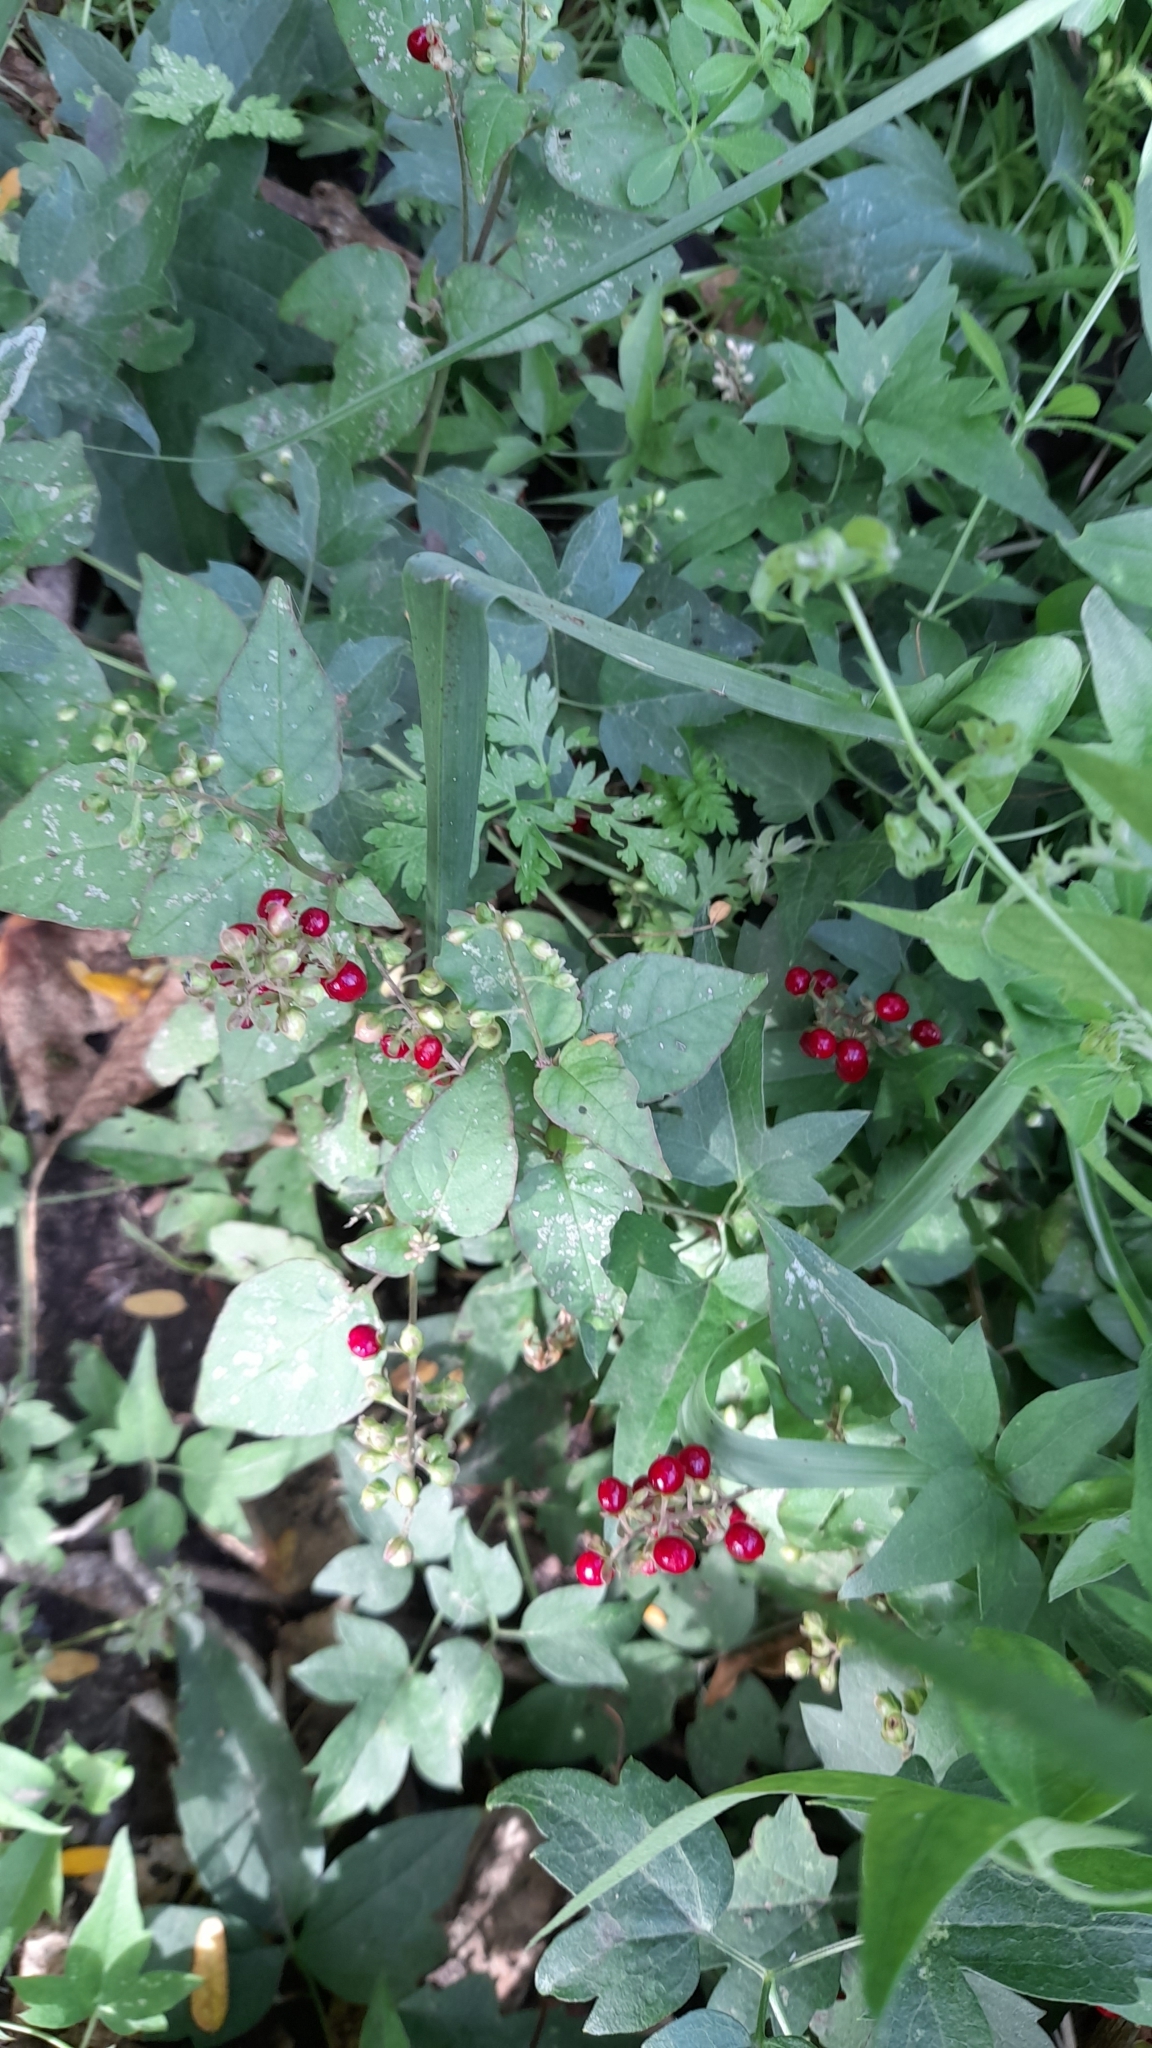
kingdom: Plantae
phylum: Tracheophyta
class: Magnoliopsida
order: Caryophyllales
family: Phytolaccaceae
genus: Rivina
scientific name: Rivina humilis
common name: Rougeplant
